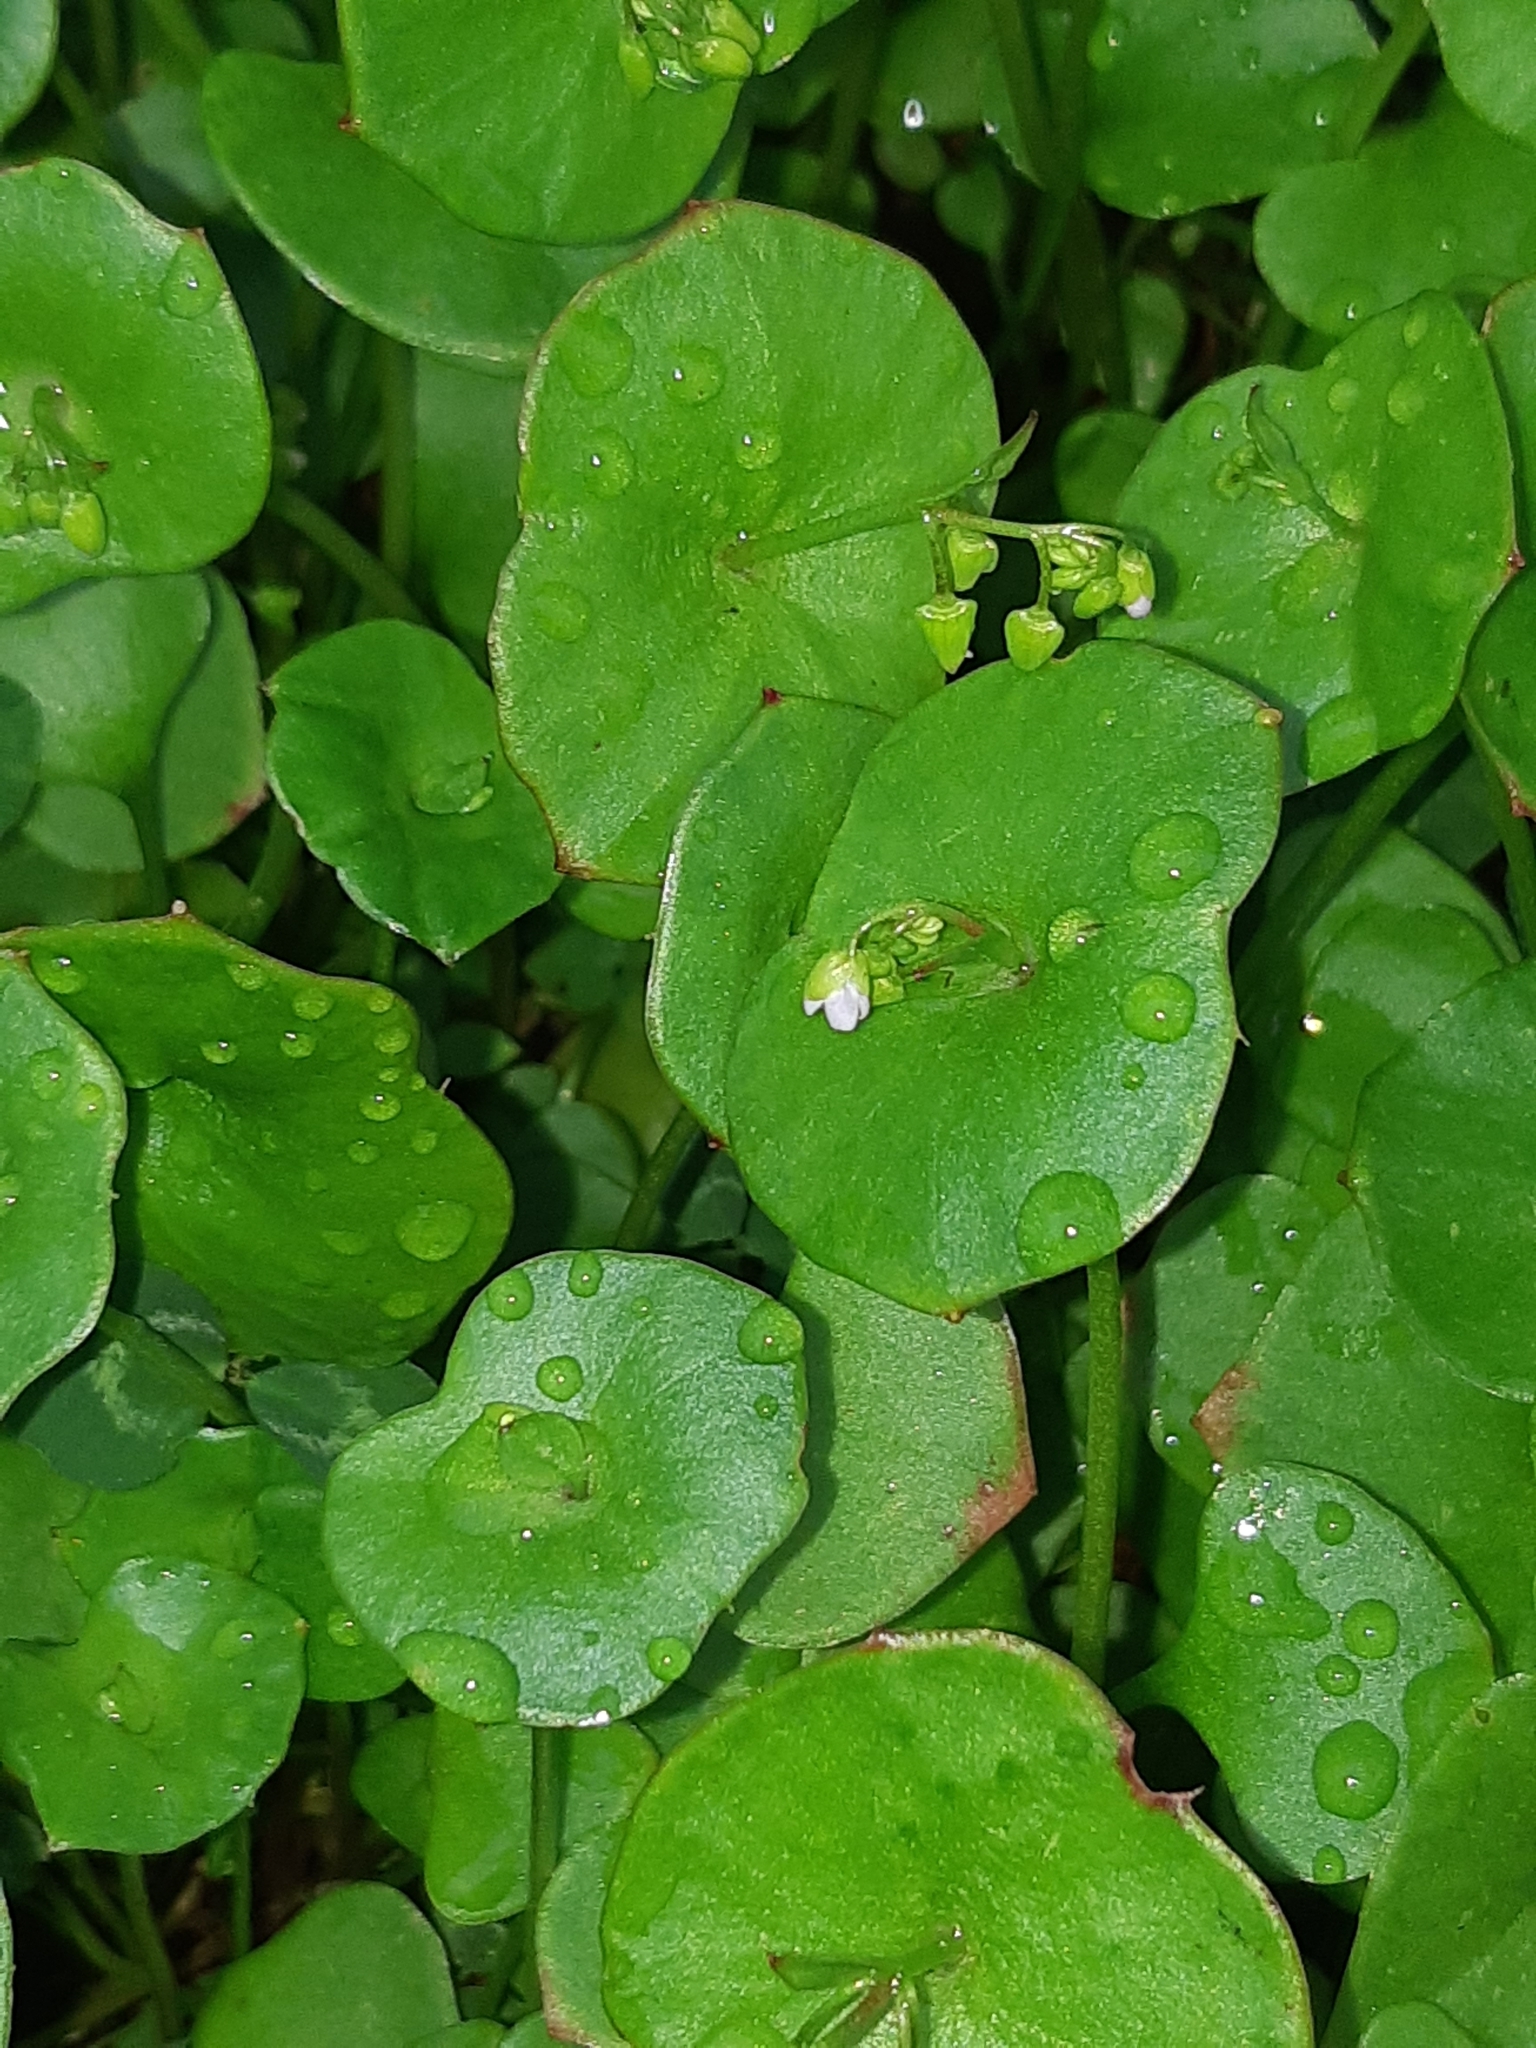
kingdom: Plantae
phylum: Tracheophyta
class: Magnoliopsida
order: Caryophyllales
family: Montiaceae
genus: Claytonia
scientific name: Claytonia perfoliata
